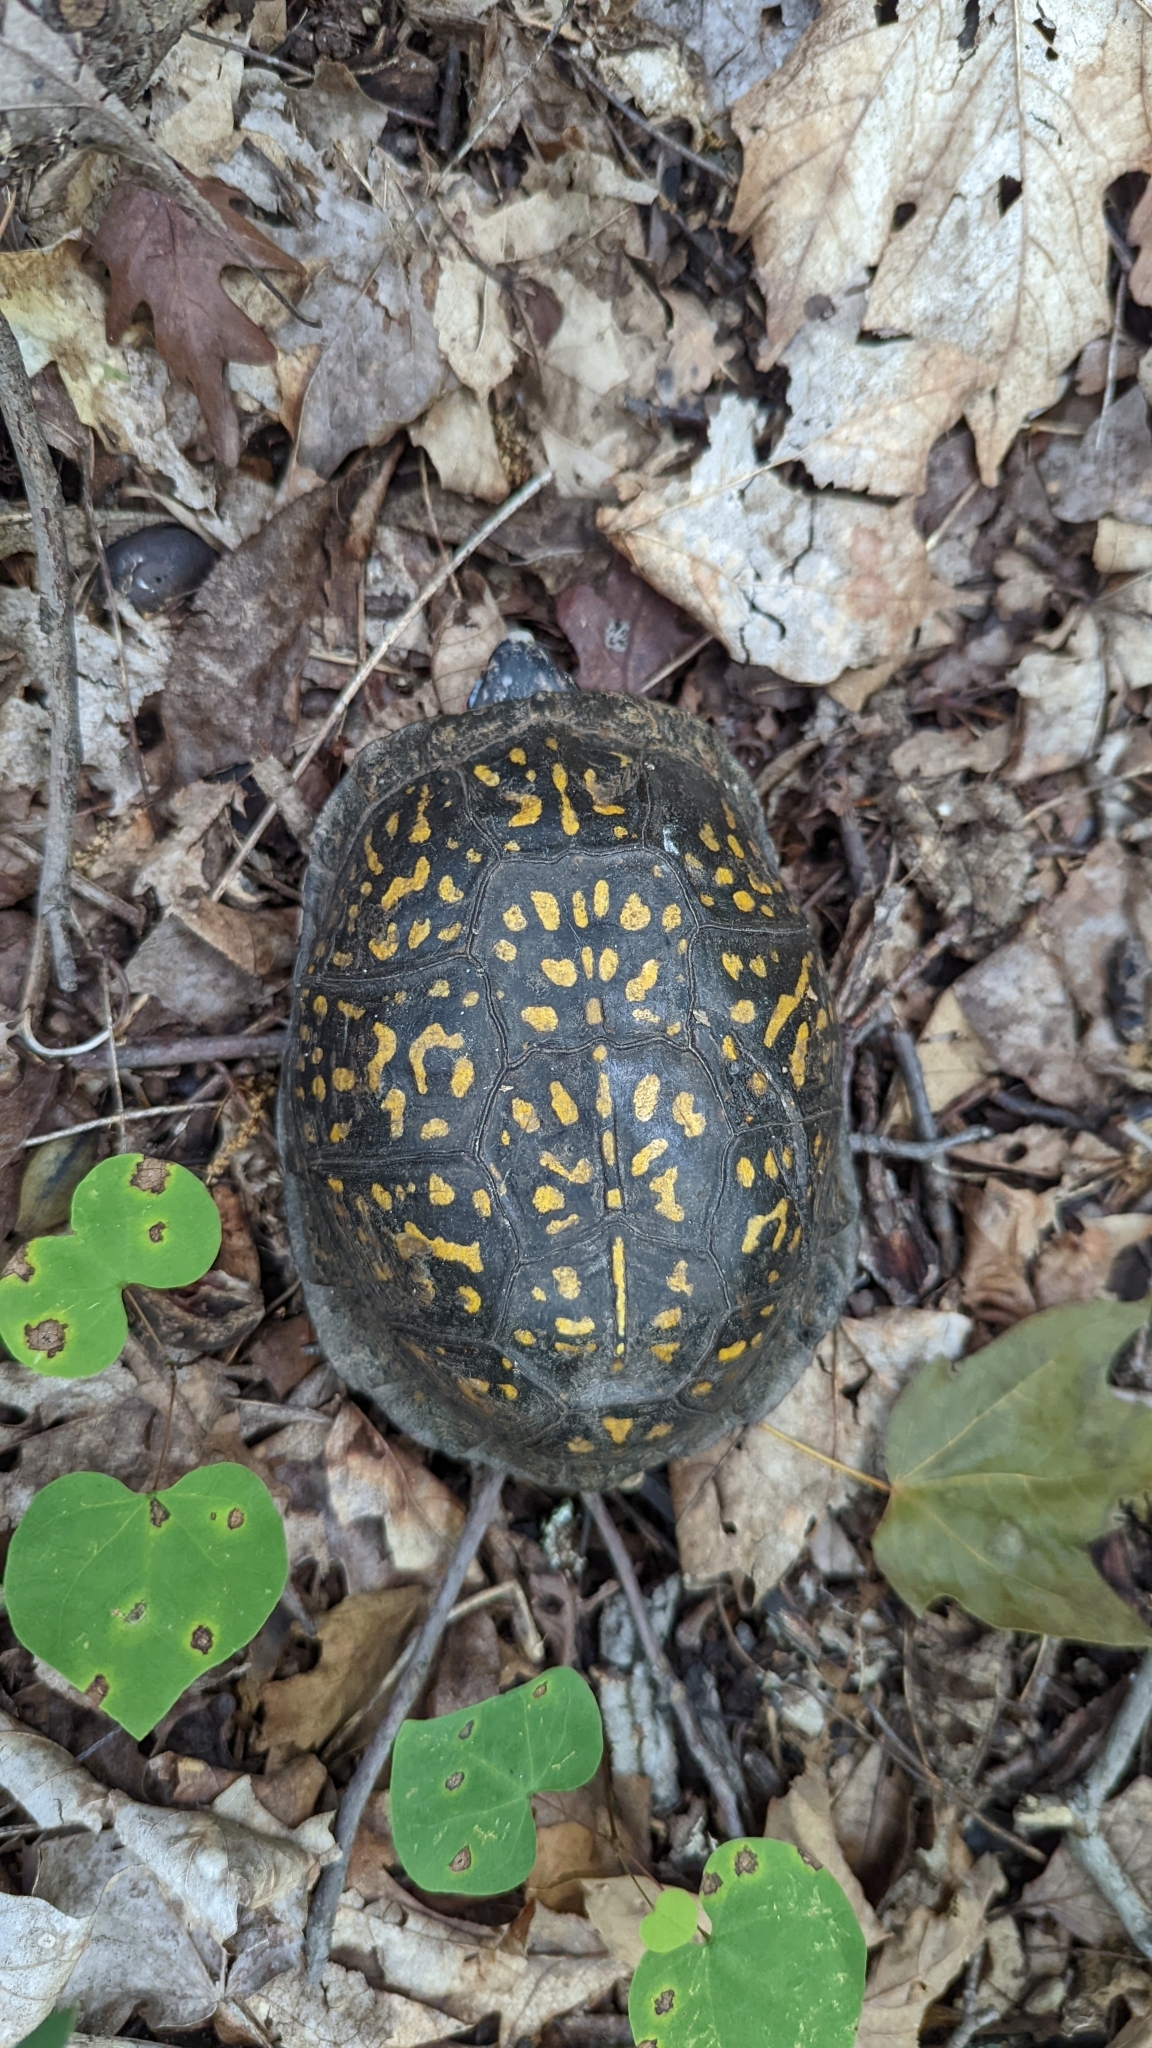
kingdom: Animalia
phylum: Chordata
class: Testudines
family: Emydidae
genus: Terrapene
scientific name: Terrapene carolina
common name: Common box turtle
